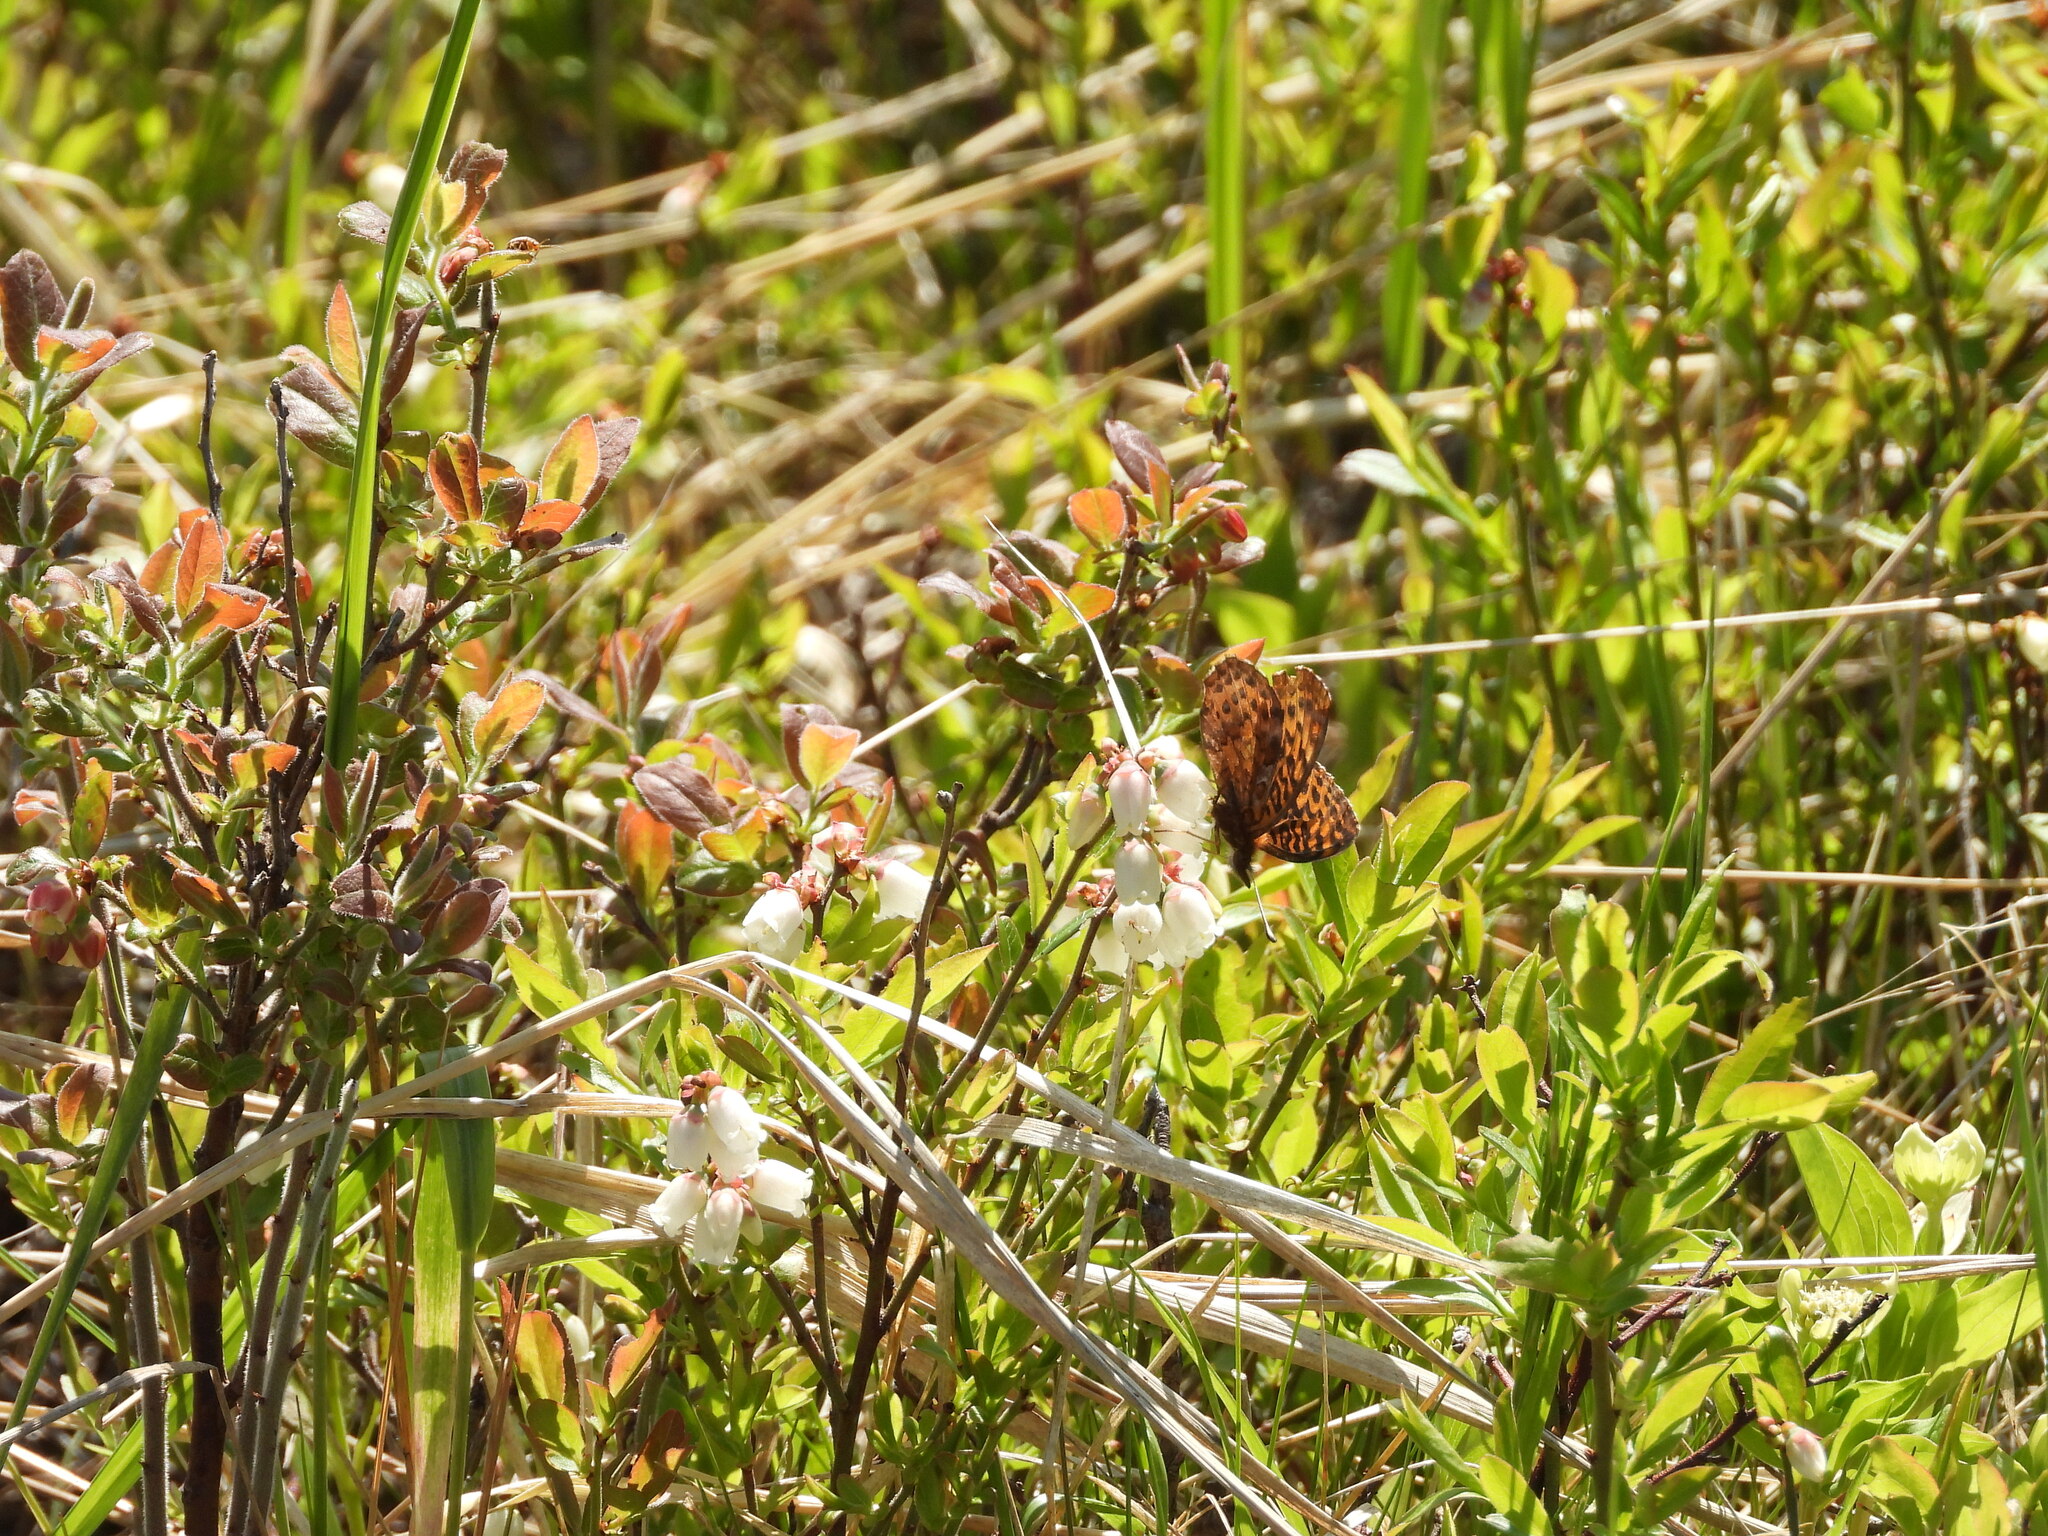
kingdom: Animalia
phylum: Arthropoda
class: Insecta
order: Lepidoptera
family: Nymphalidae
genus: Clossiana
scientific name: Clossiana toddi
